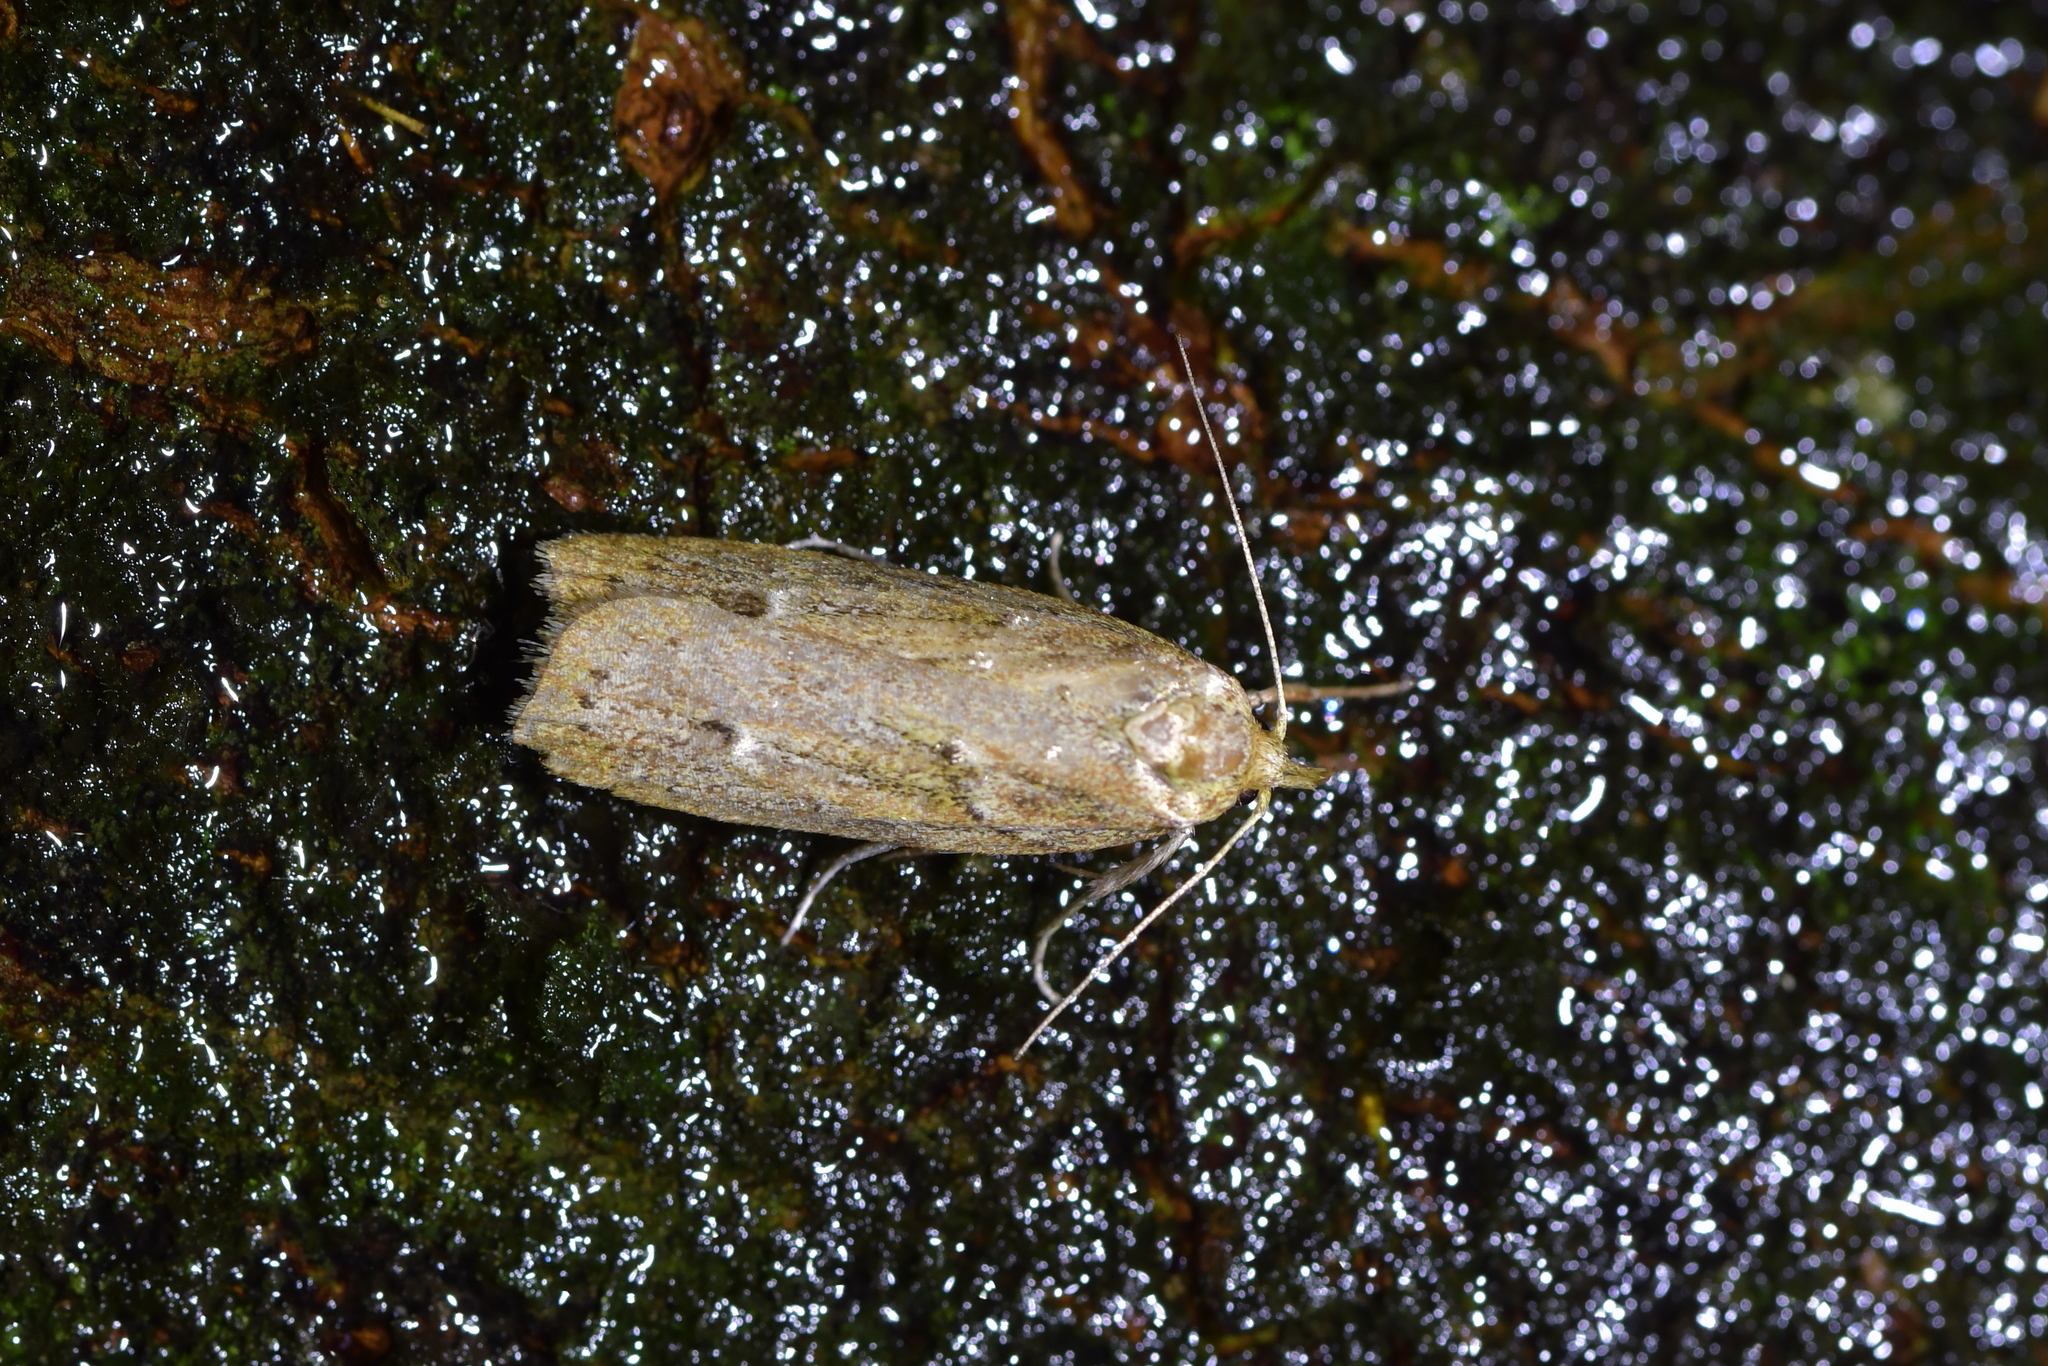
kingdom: Animalia
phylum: Arthropoda
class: Insecta
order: Lepidoptera
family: Depressariidae
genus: Agriophara
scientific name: Agriophara
